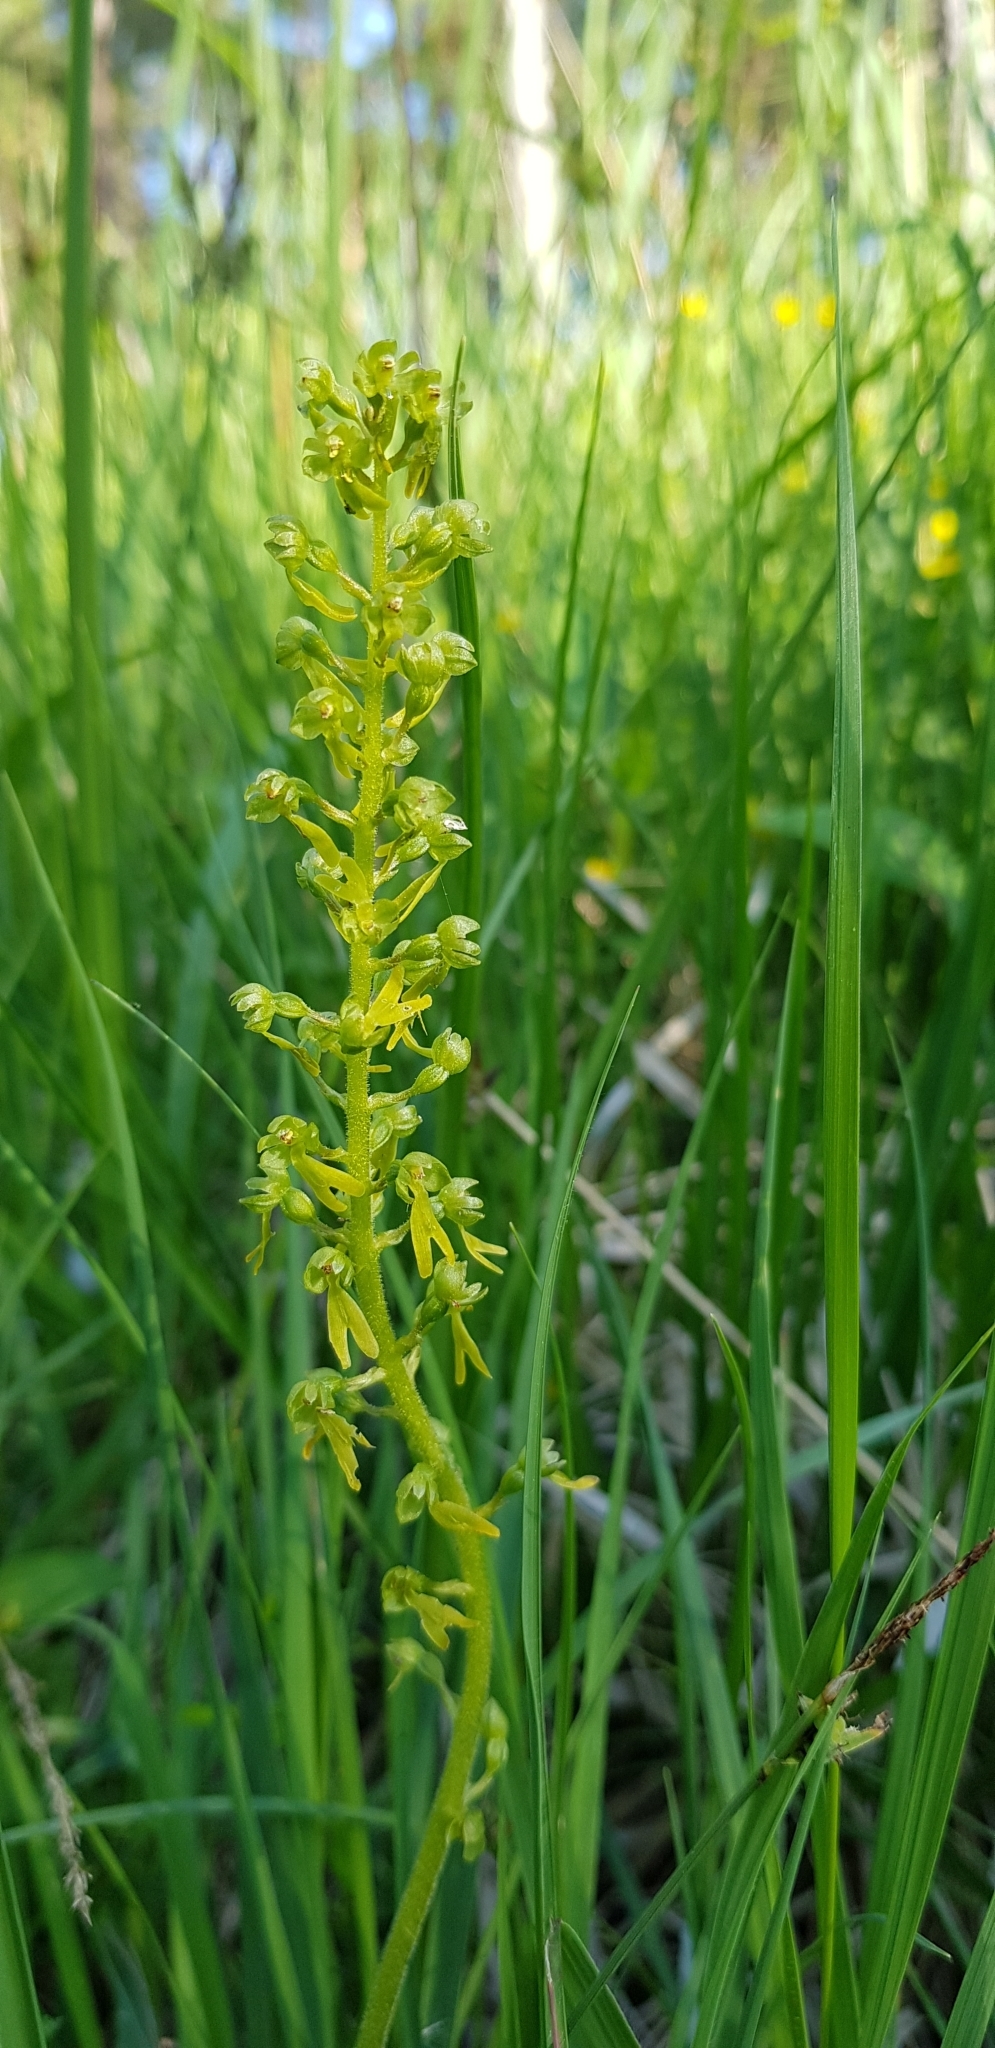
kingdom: Plantae
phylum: Tracheophyta
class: Liliopsida
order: Asparagales
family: Orchidaceae
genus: Neottia
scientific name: Neottia ovata
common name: Common twayblade
